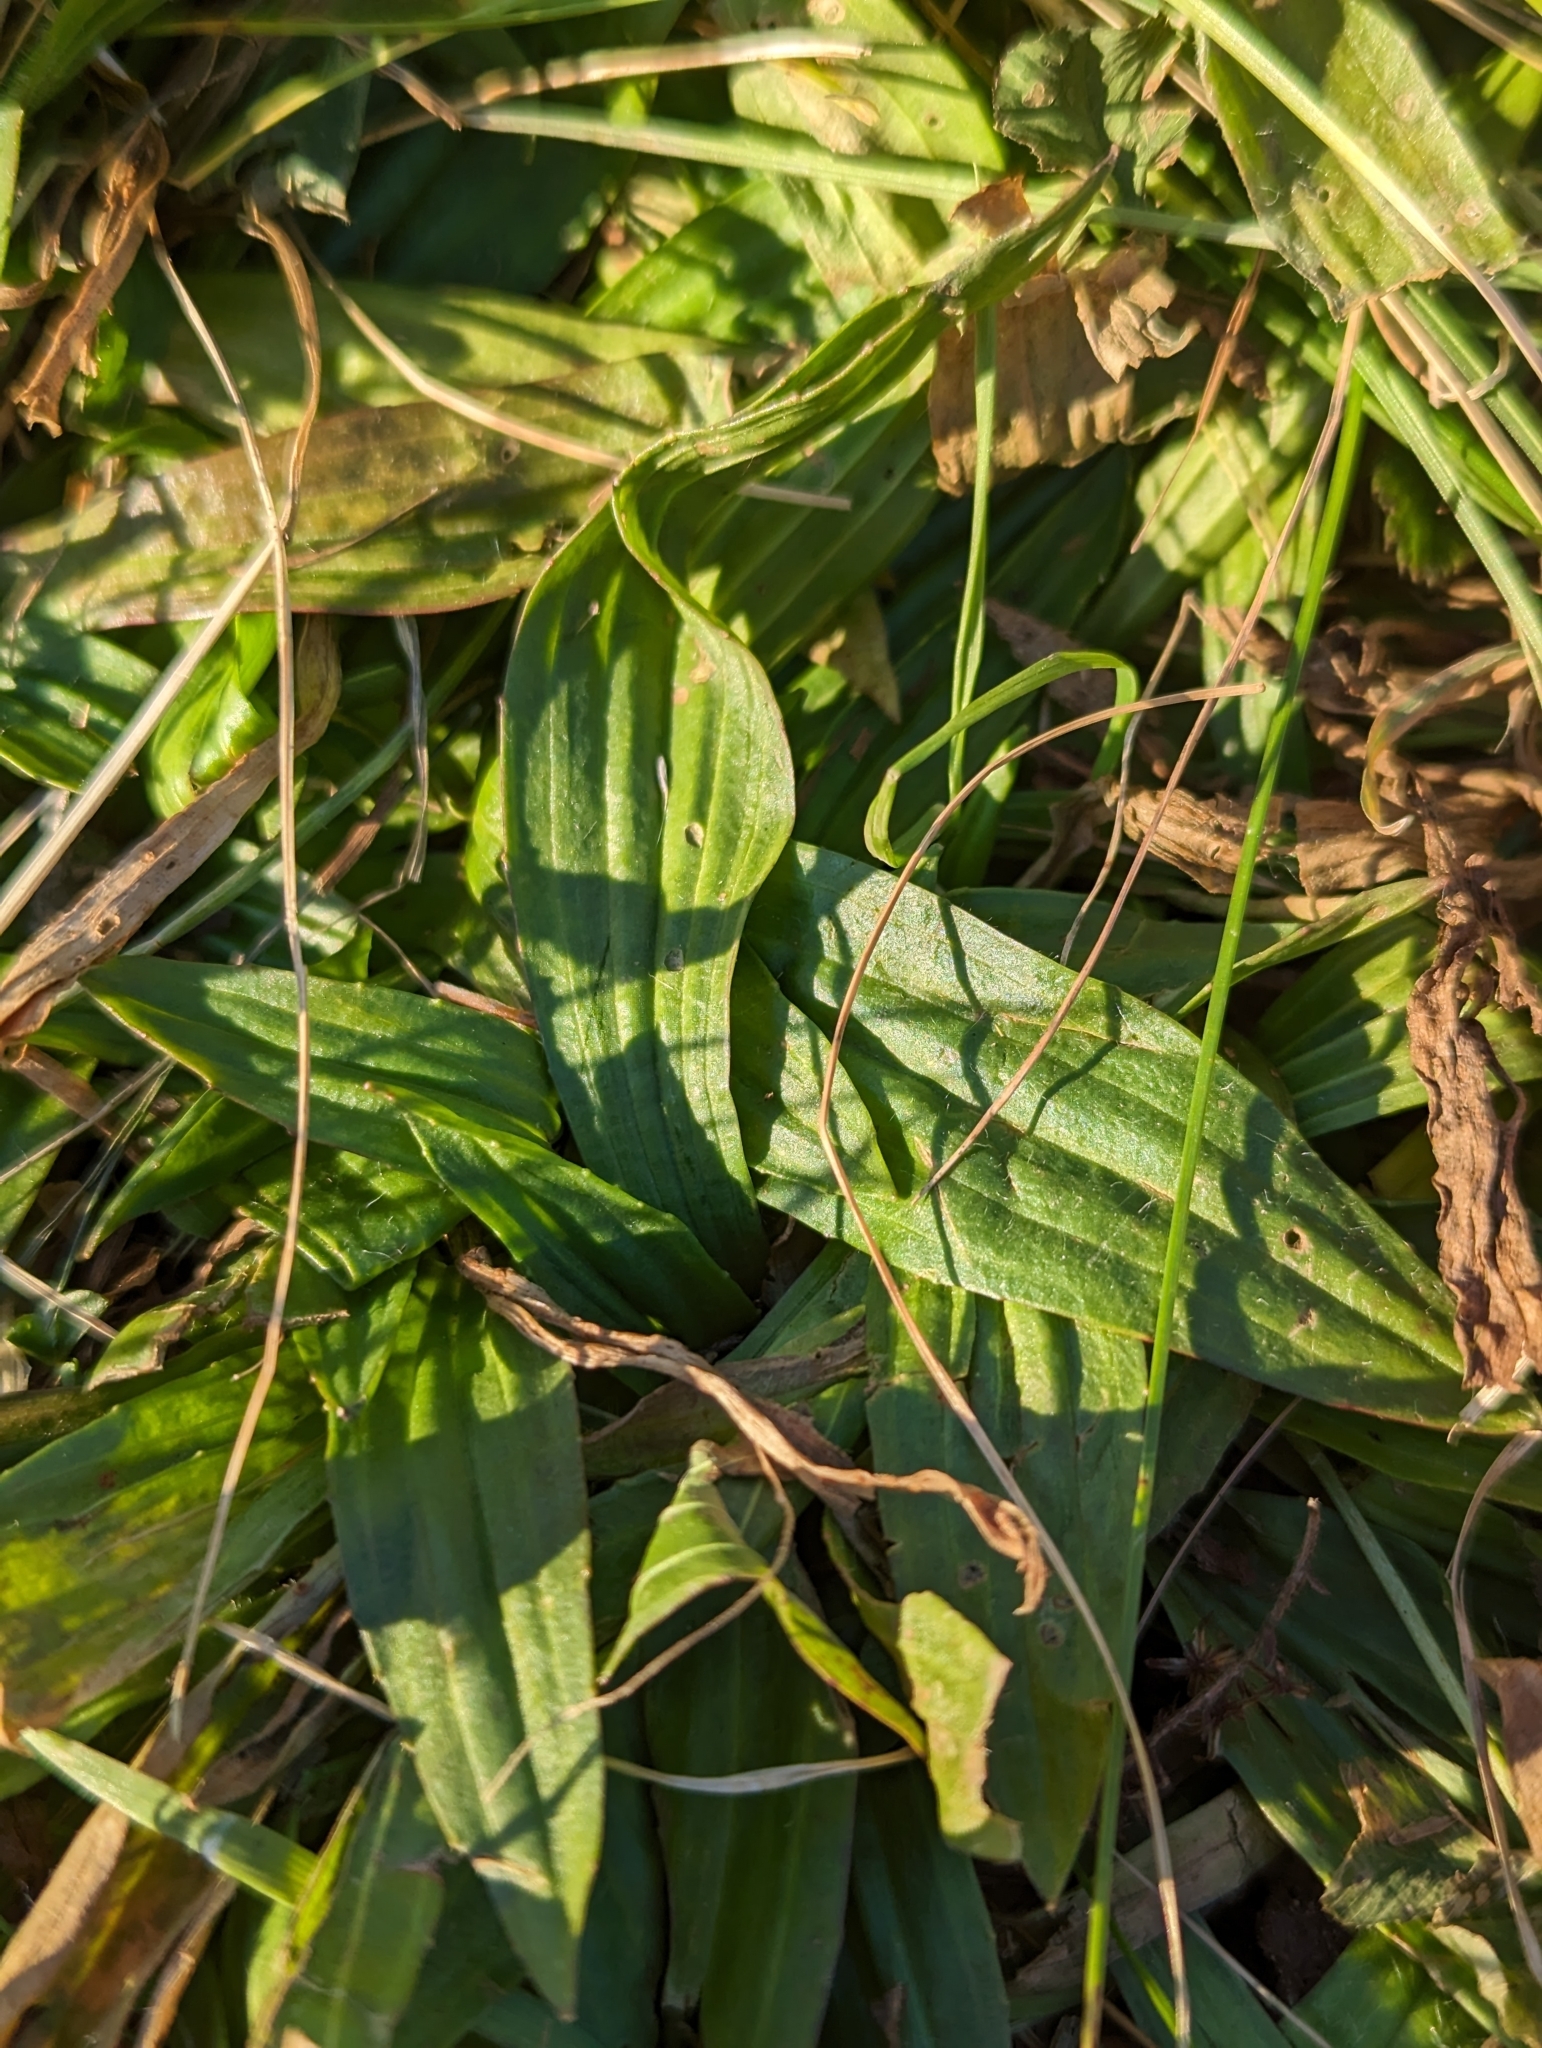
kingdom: Plantae
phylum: Tracheophyta
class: Magnoliopsida
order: Lamiales
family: Plantaginaceae
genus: Plantago
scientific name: Plantago lanceolata
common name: Ribwort plantain
